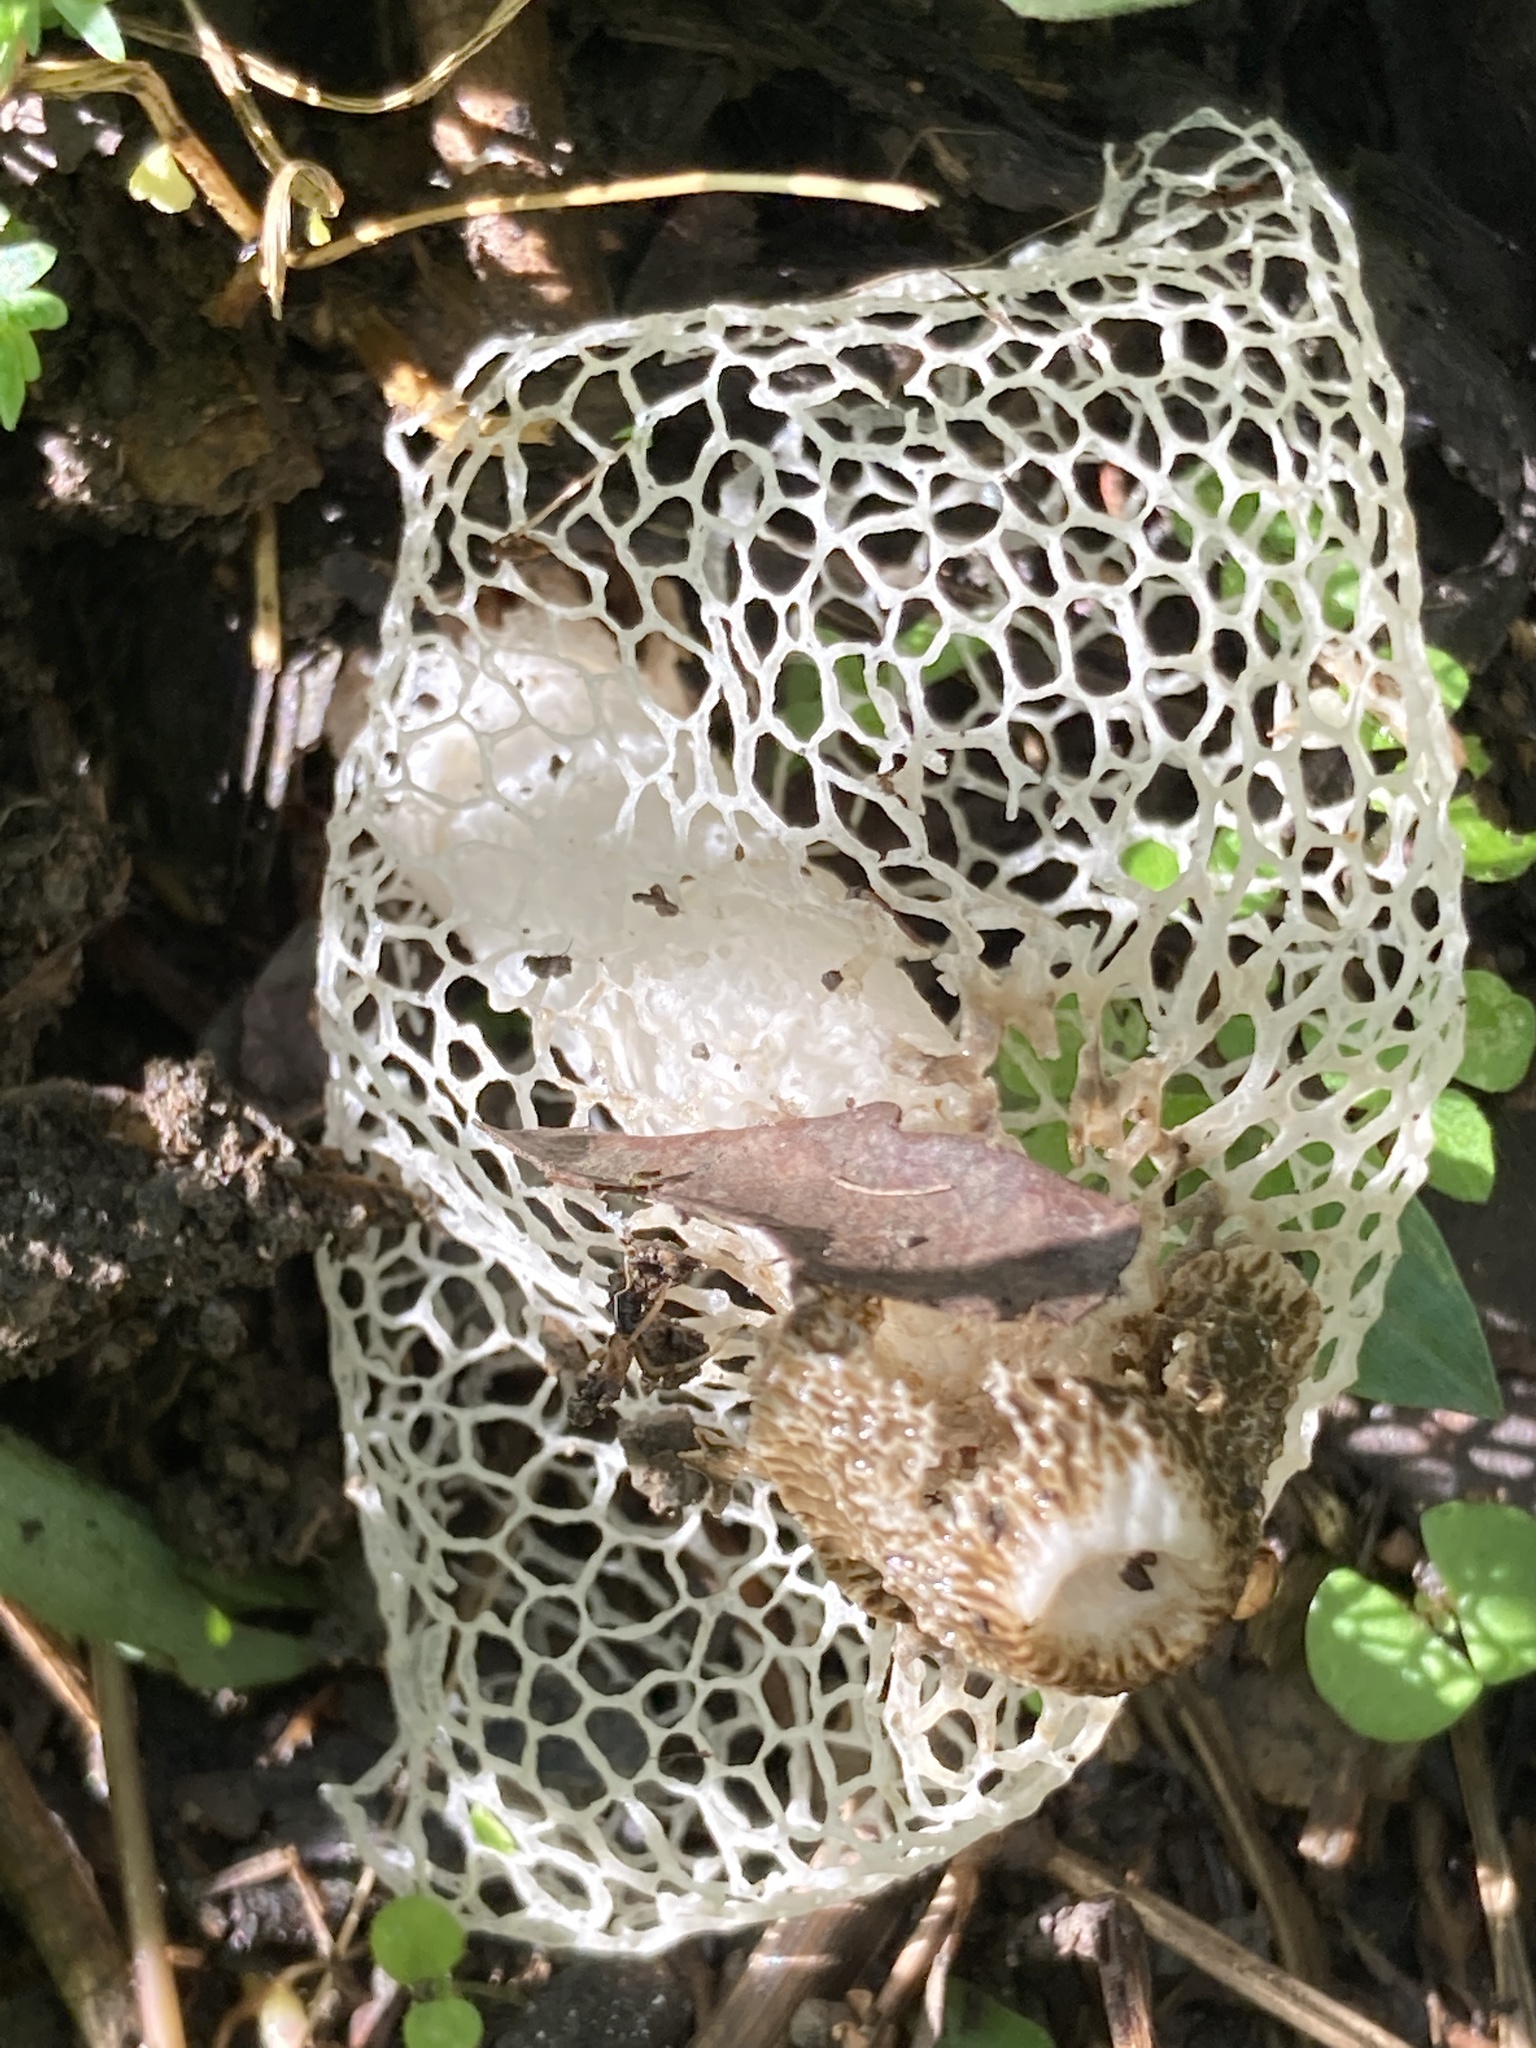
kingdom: Fungi
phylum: Basidiomycota
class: Agaricomycetes
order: Phallales
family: Phallaceae
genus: Phallus
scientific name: Phallus indusiatus
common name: Bridal veil stinkhorn
